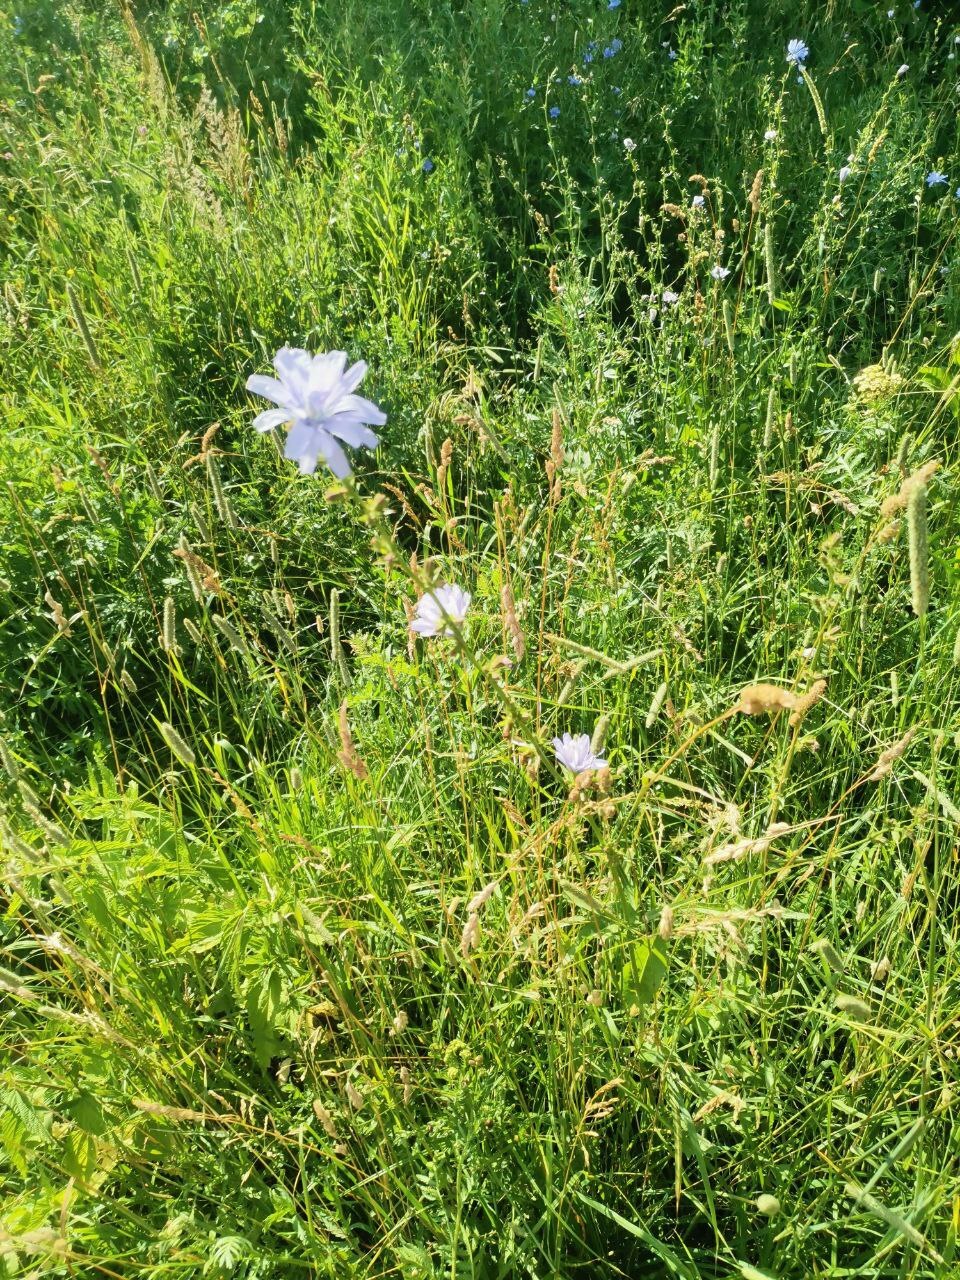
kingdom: Plantae
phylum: Tracheophyta
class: Magnoliopsida
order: Asterales
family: Asteraceae
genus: Cichorium
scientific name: Cichorium intybus
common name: Chicory
